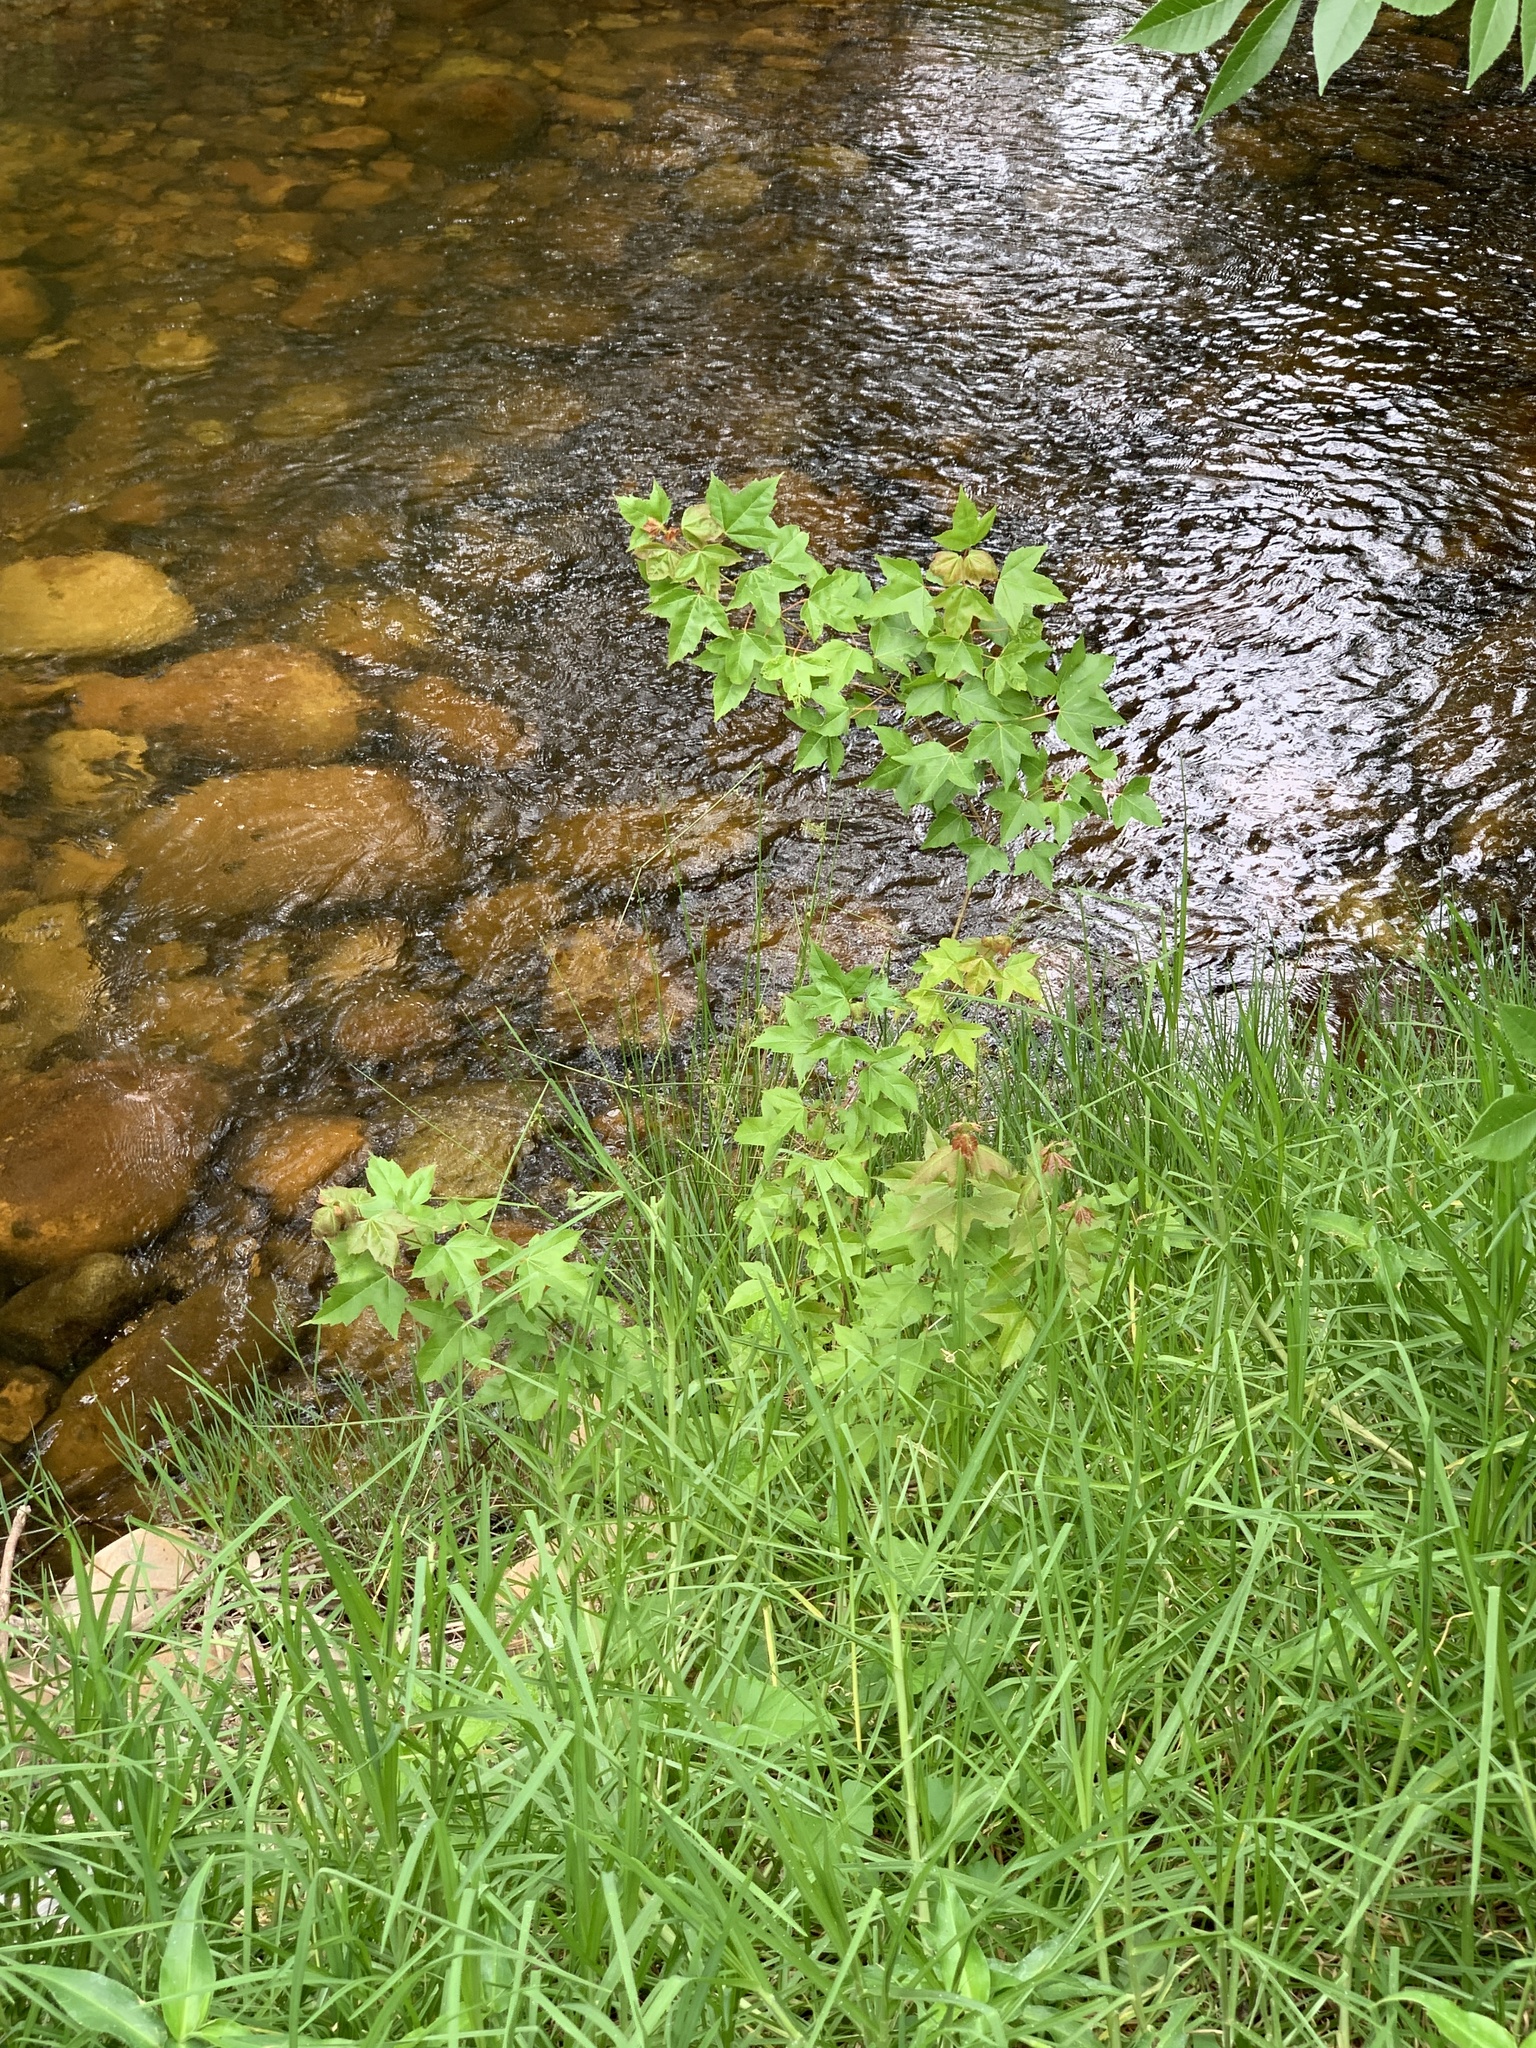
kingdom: Plantae
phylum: Tracheophyta
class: Magnoliopsida
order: Sapindales
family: Sapindaceae
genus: Acer
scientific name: Acer buergerianum
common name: Trident maple
